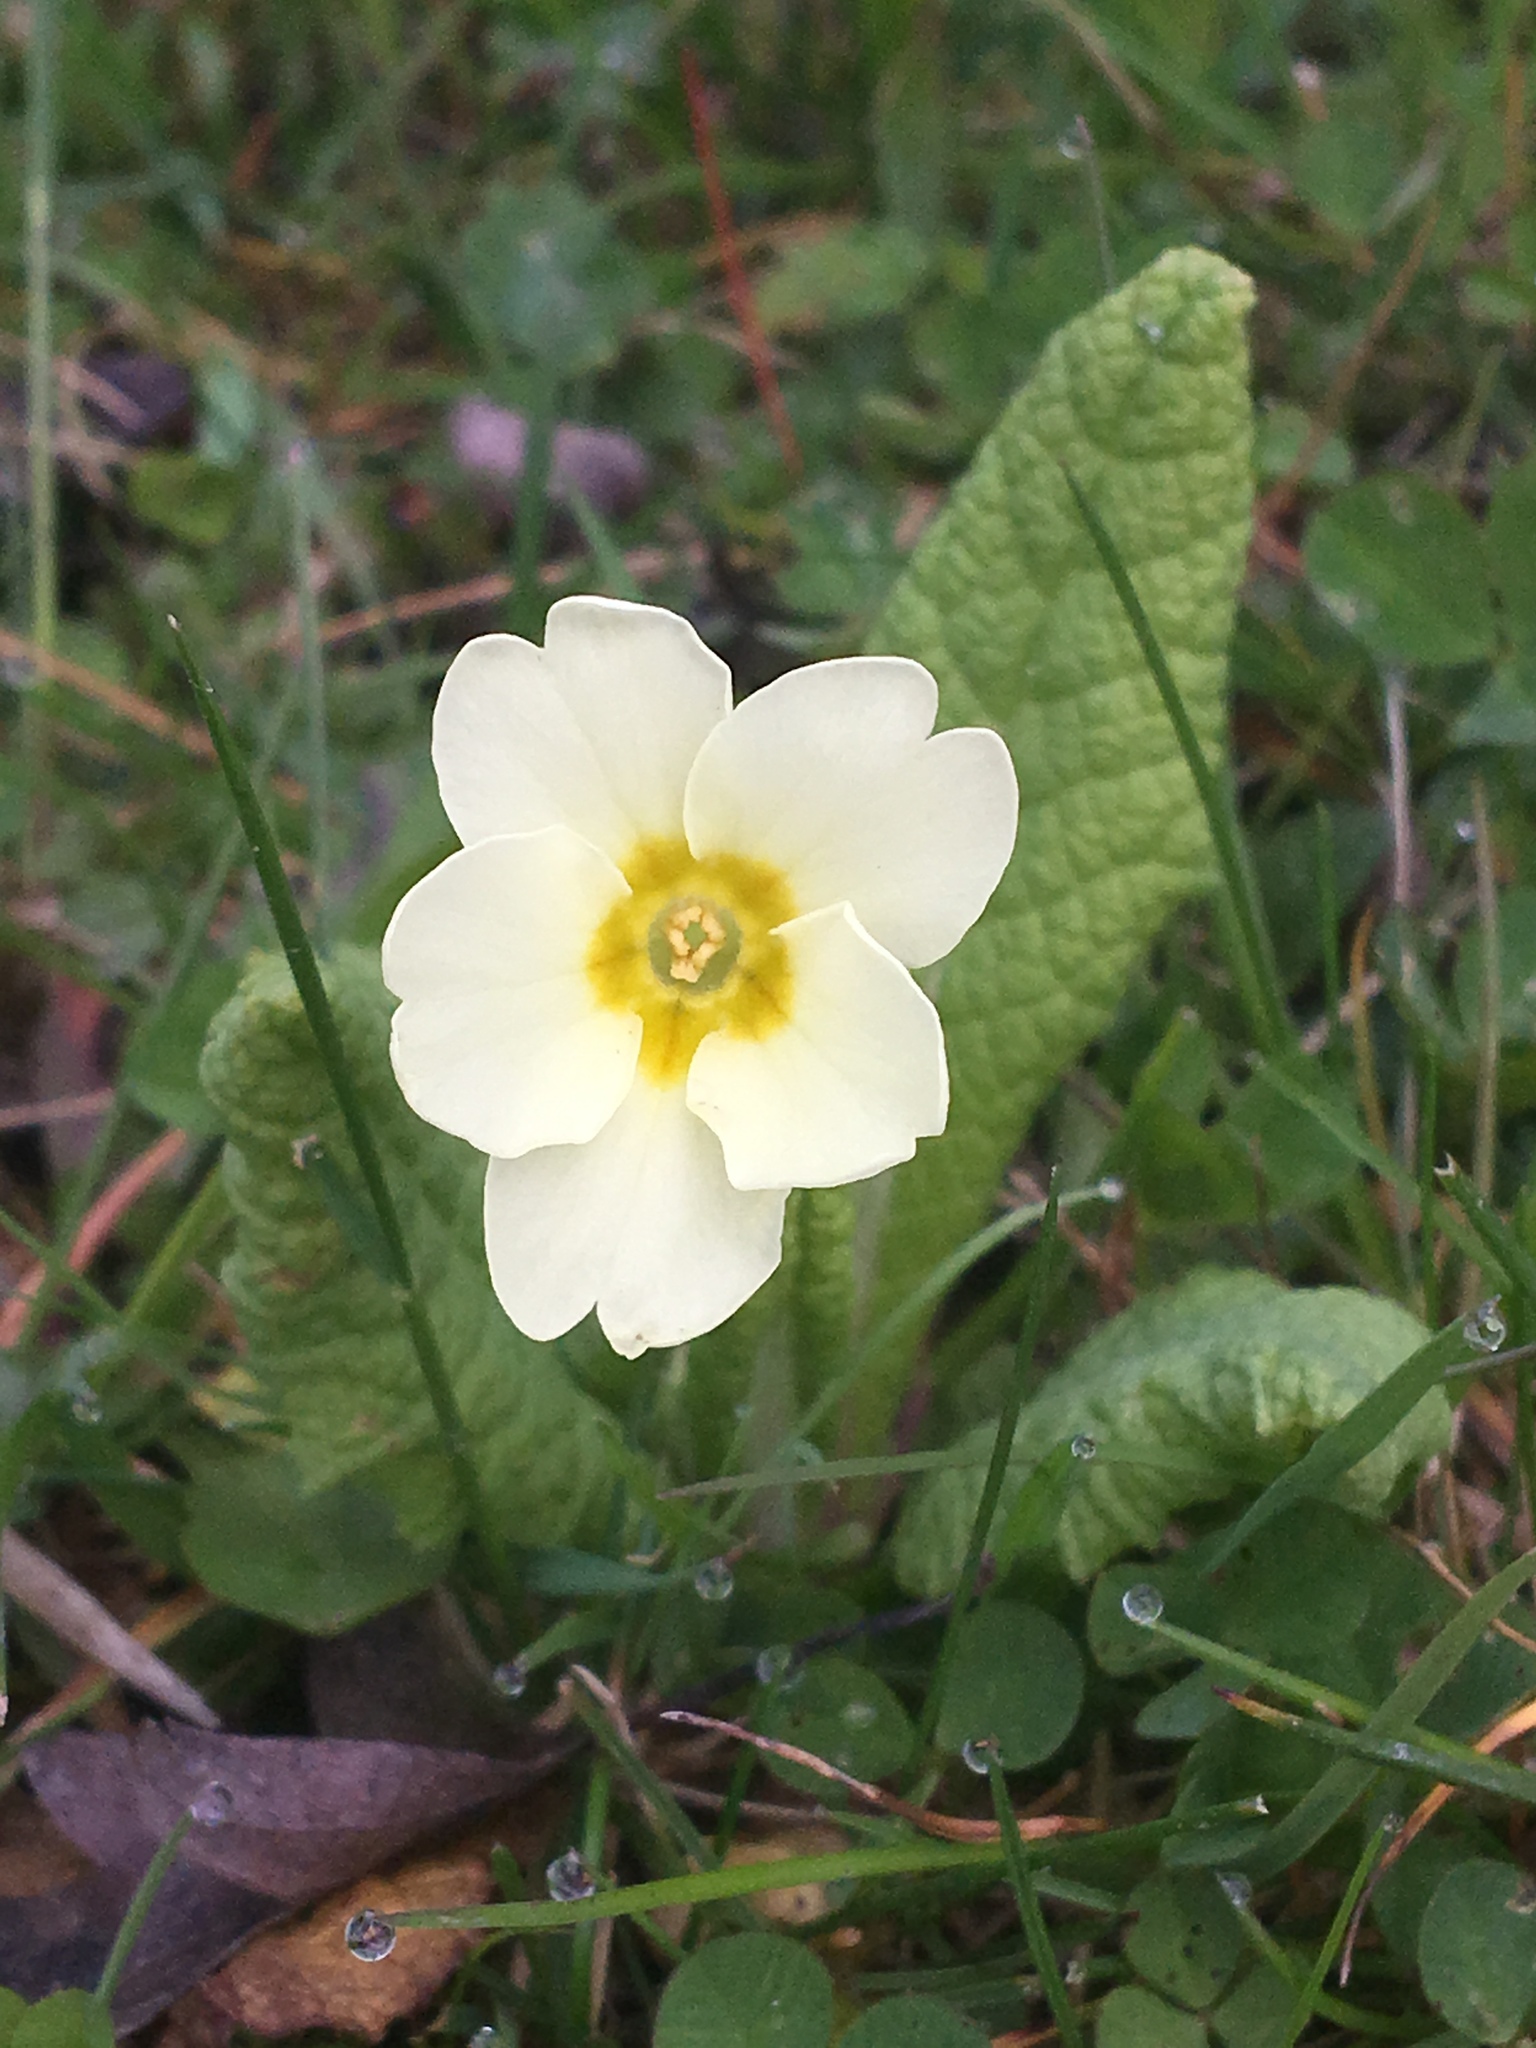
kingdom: Plantae
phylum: Tracheophyta
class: Magnoliopsida
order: Ericales
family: Primulaceae
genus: Primula
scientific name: Primula vulgaris
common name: Primrose
